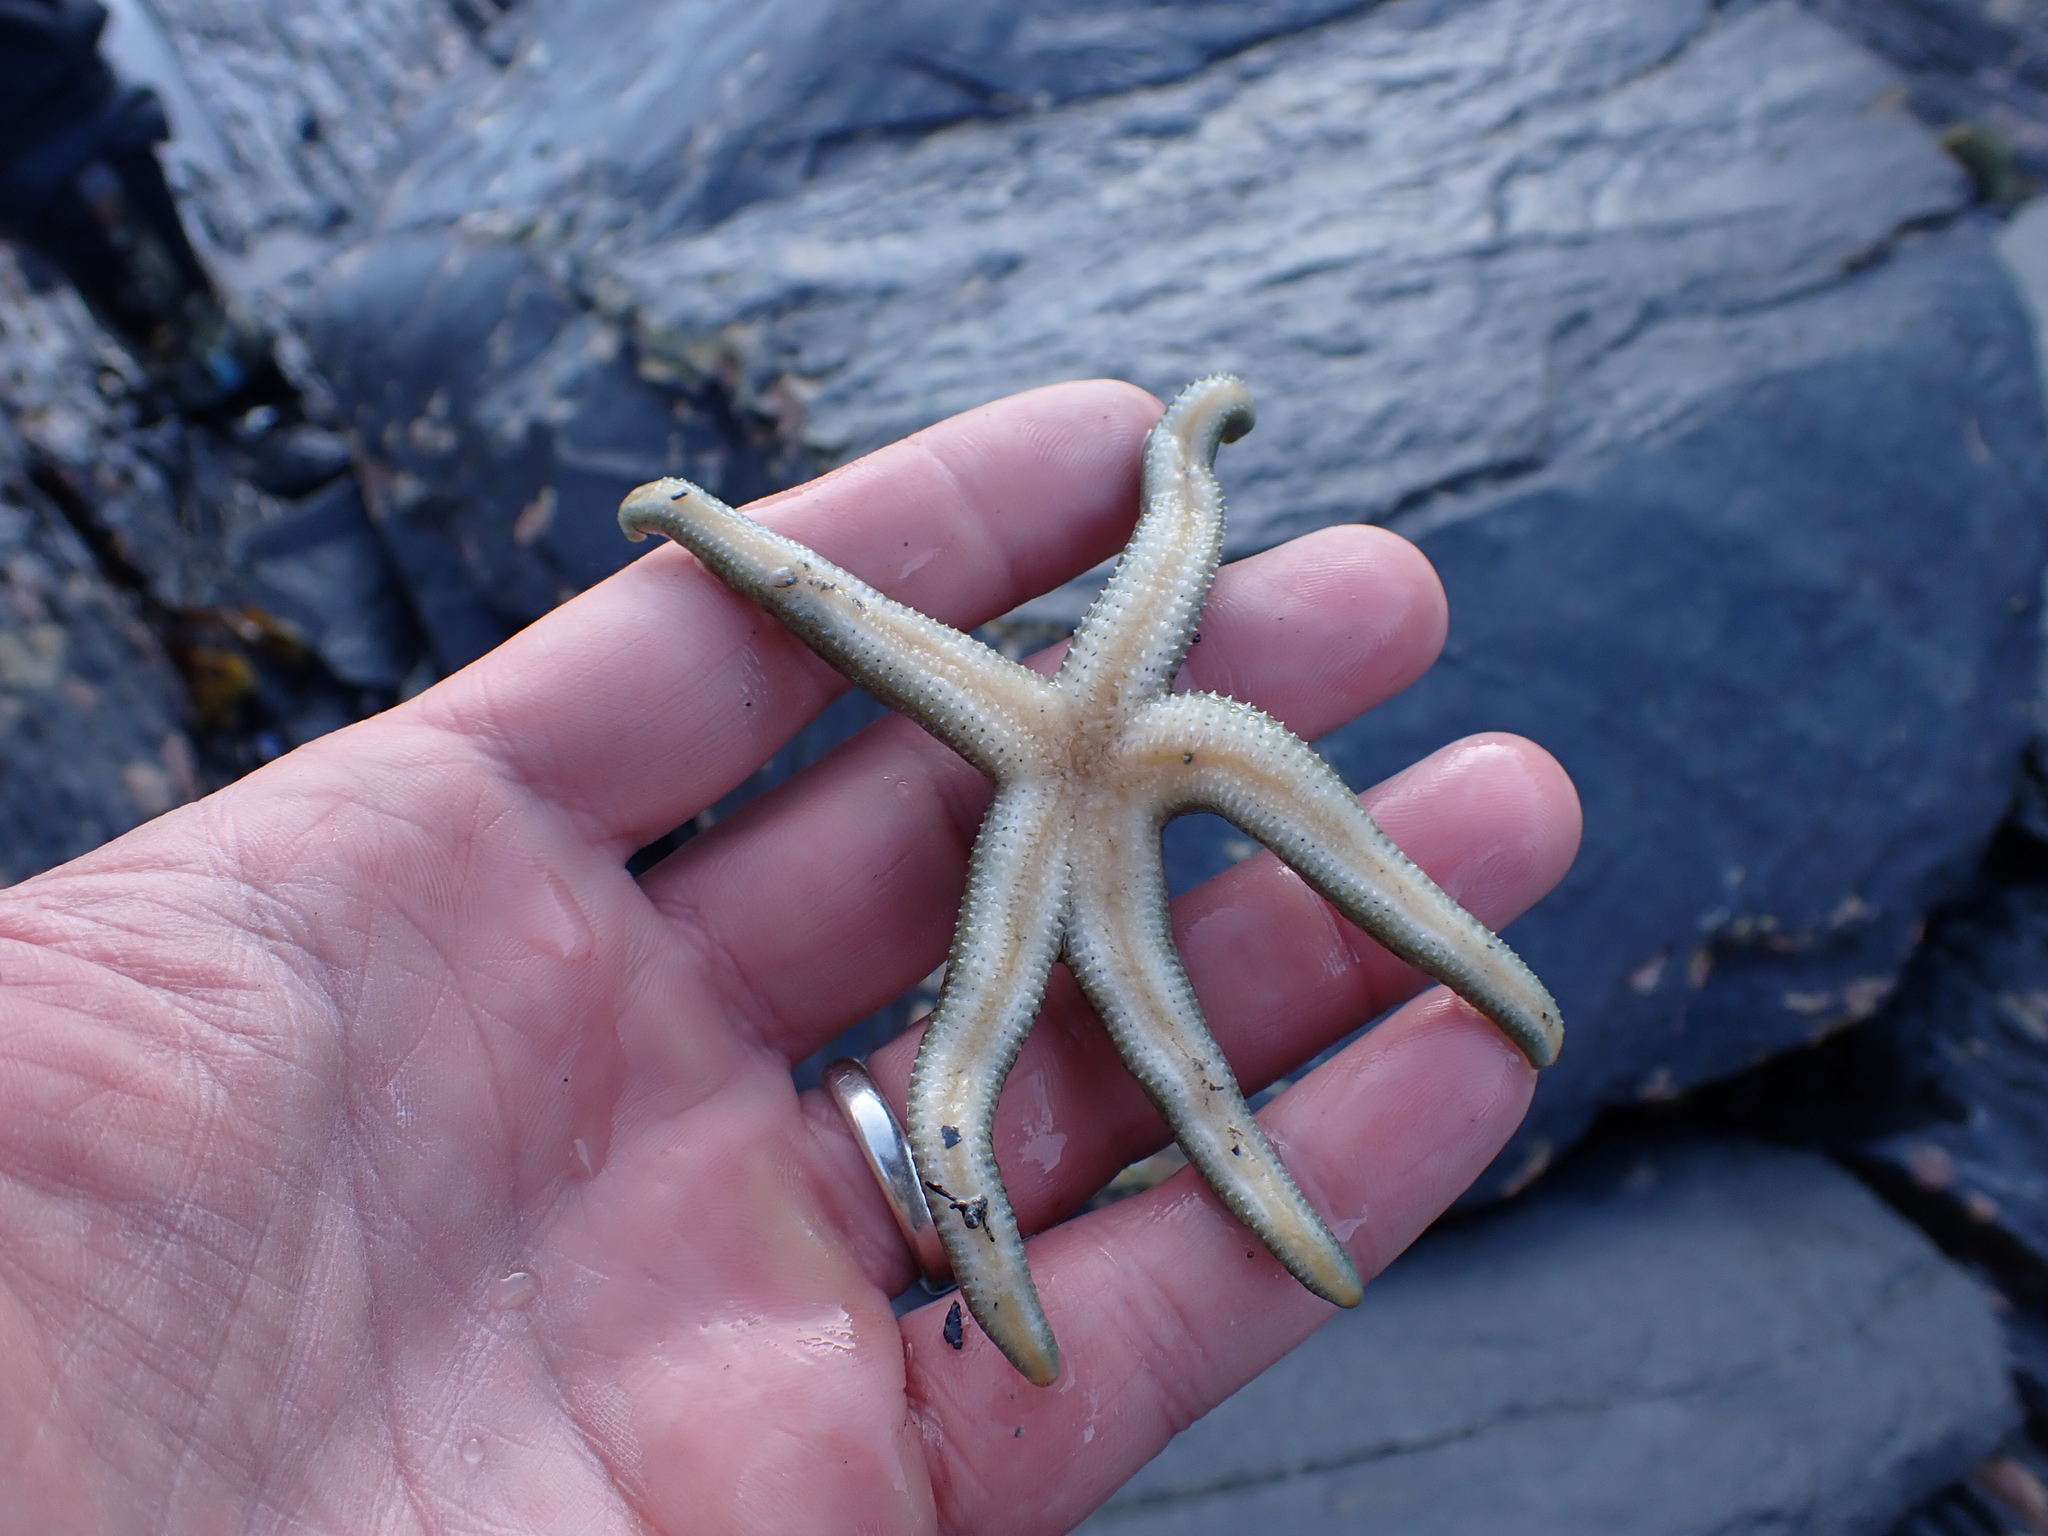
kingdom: Animalia
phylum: Echinodermata
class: Asteroidea
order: Forcipulatida
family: Asteriidae
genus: Evasterias
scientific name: Evasterias troschelii
